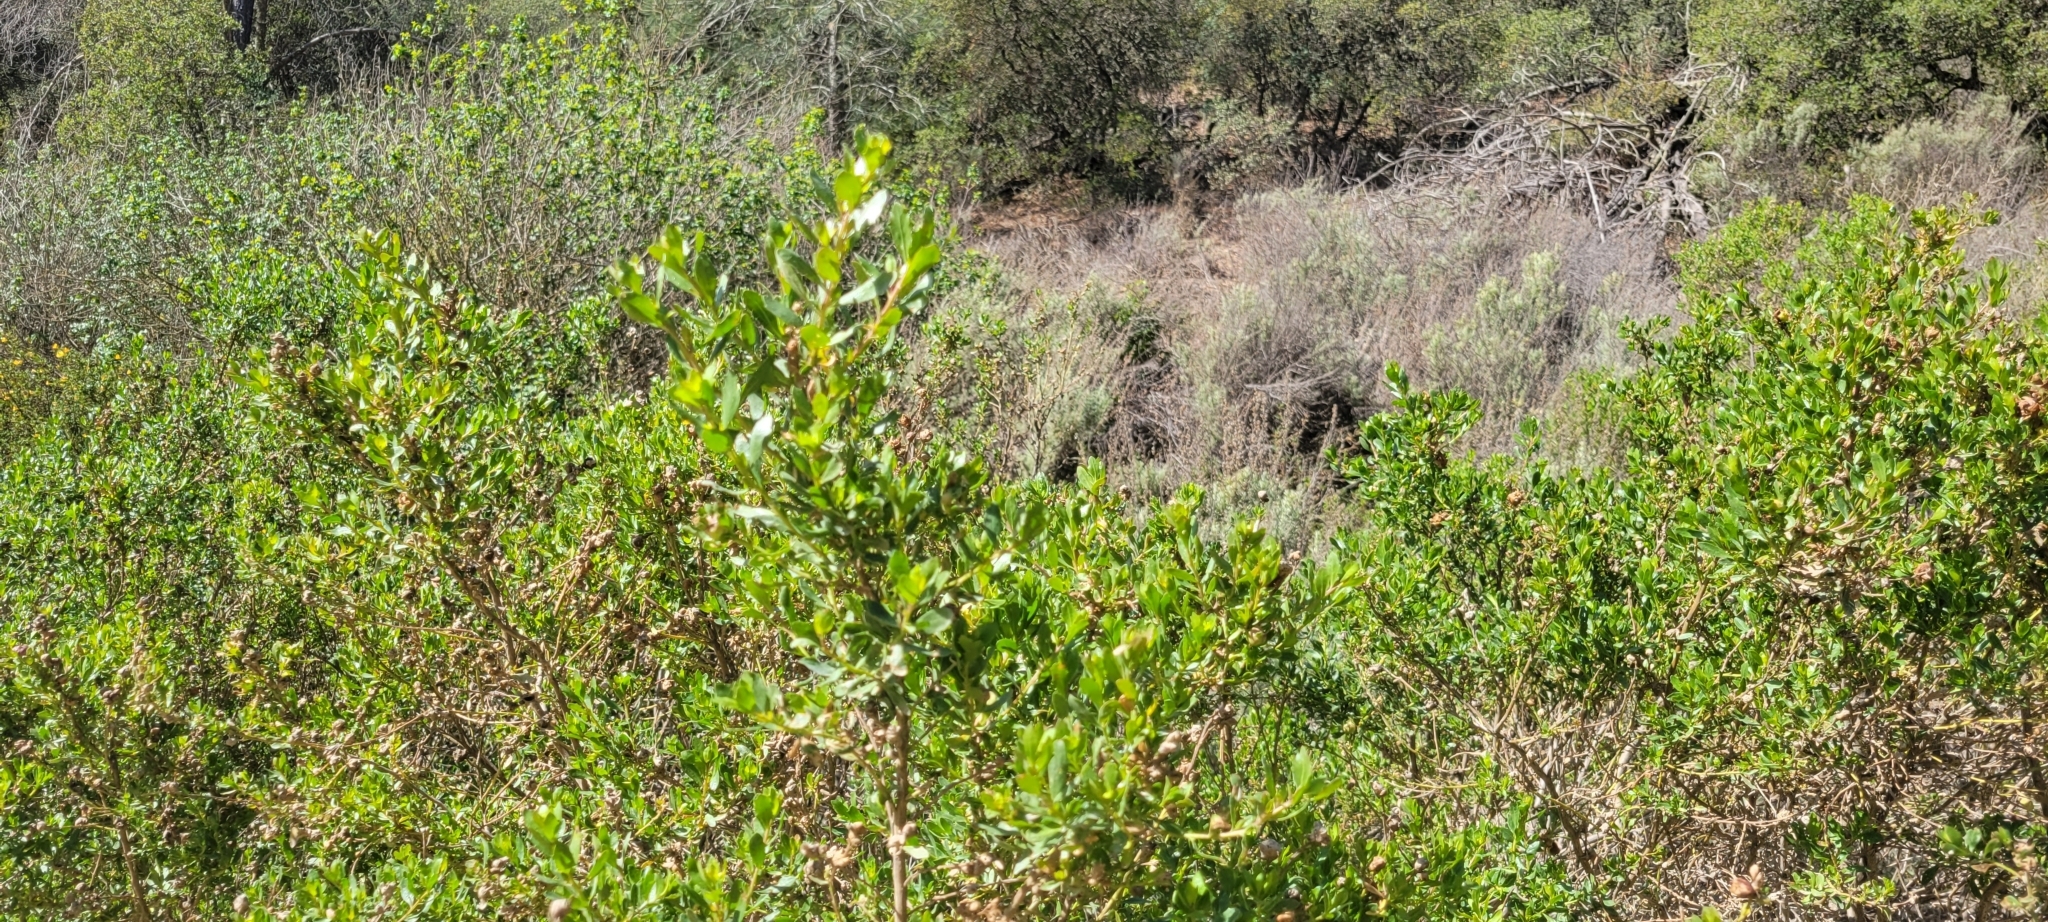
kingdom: Plantae
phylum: Tracheophyta
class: Magnoliopsida
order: Asterales
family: Asteraceae
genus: Baccharis
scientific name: Baccharis pilularis
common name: Coyotebrush
